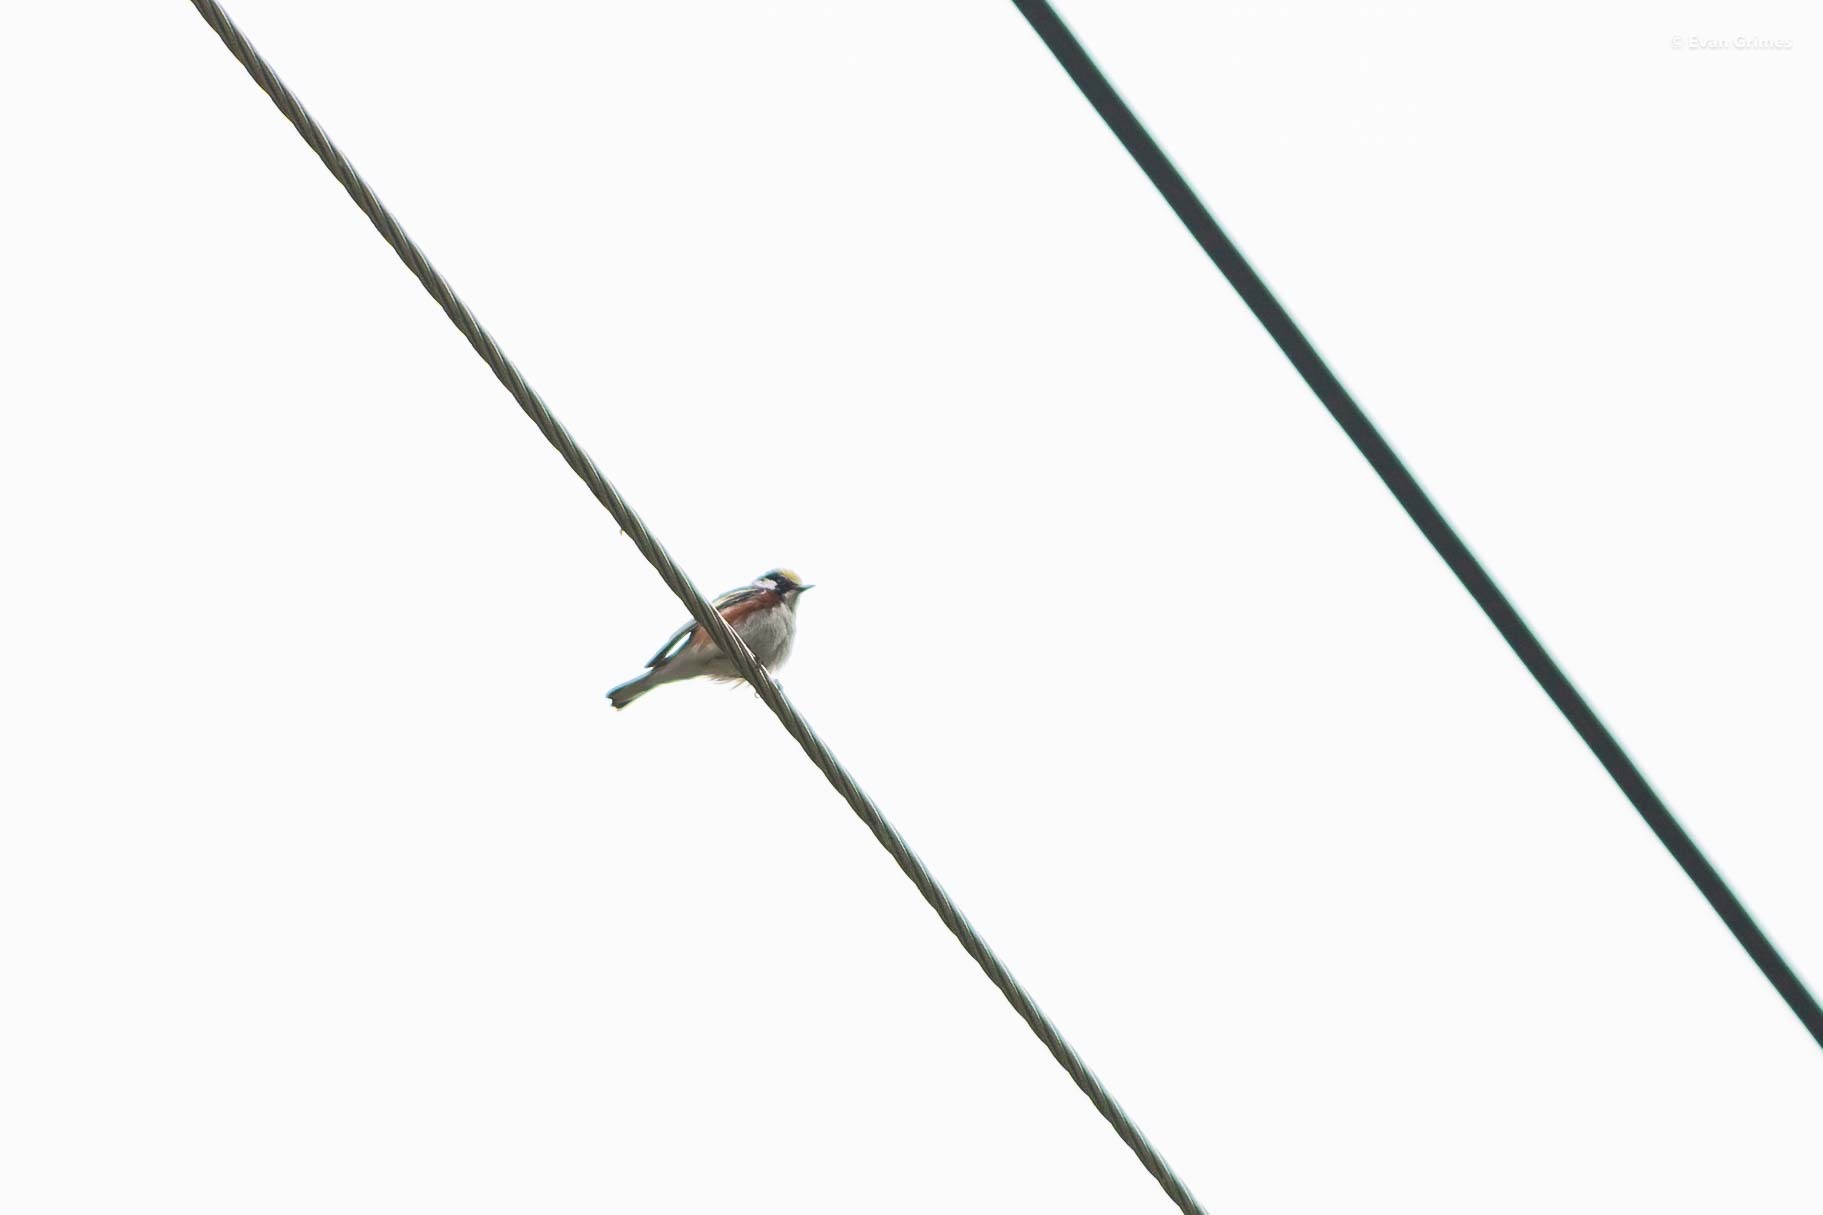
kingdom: Animalia
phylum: Chordata
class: Aves
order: Passeriformes
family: Parulidae
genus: Setophaga
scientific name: Setophaga pensylvanica
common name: Chestnut-sided warbler
